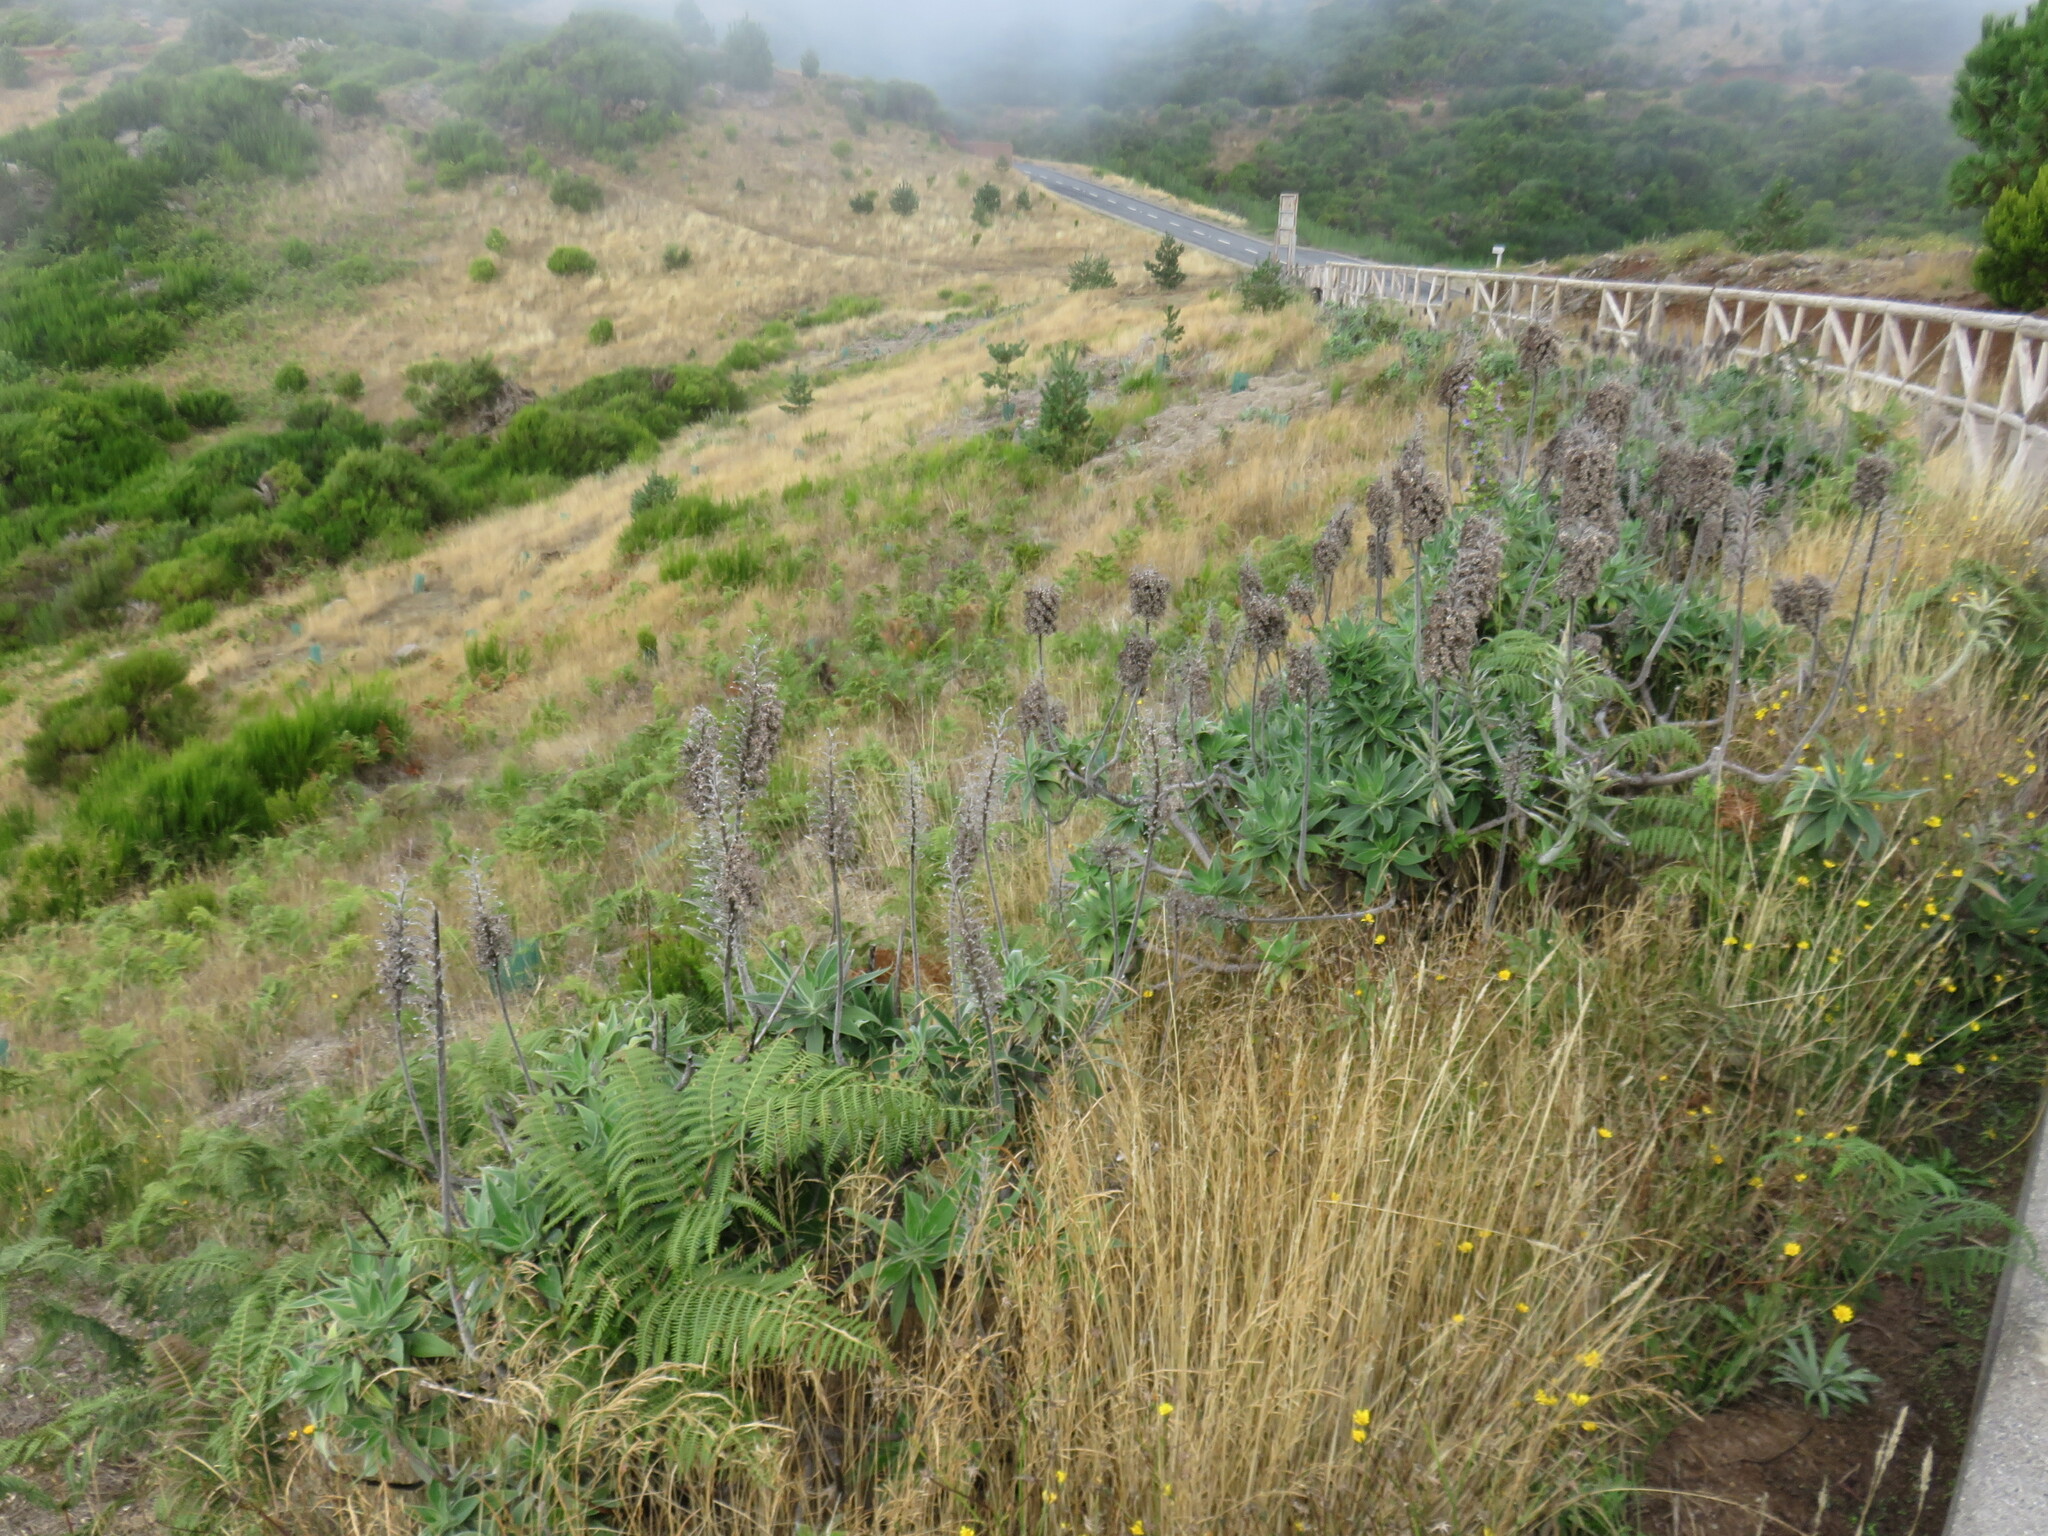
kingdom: Plantae
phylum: Tracheophyta
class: Magnoliopsida
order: Boraginales
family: Boraginaceae
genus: Echium
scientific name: Echium candicans
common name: Pride of madeira
